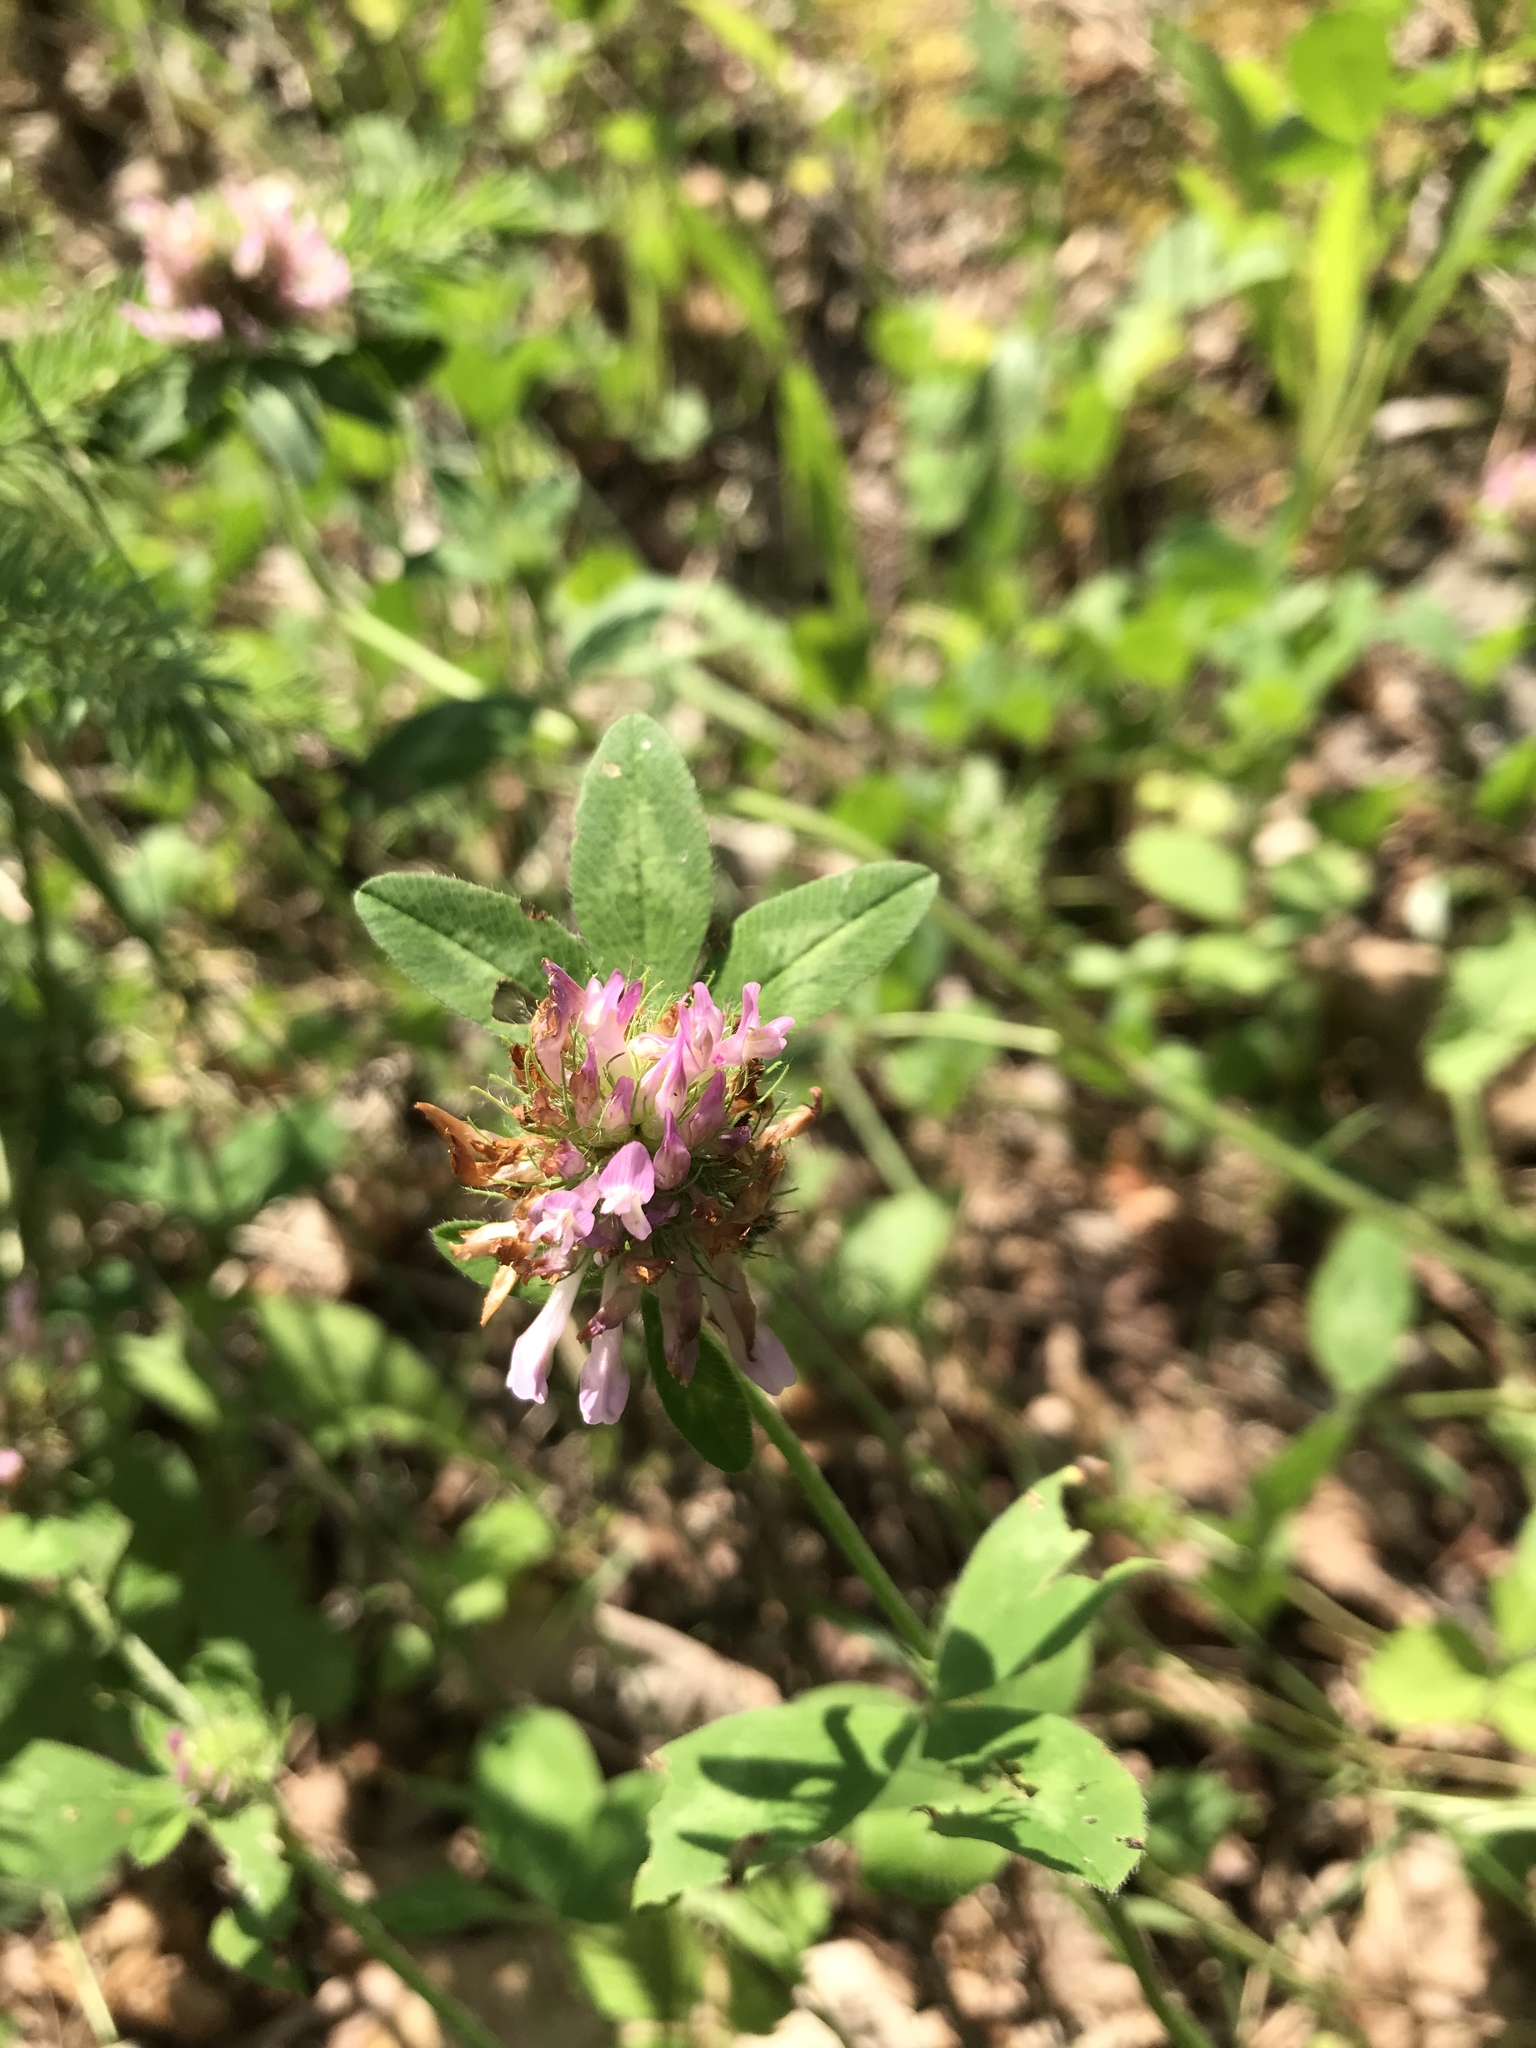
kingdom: Plantae
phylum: Tracheophyta
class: Magnoliopsida
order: Fabales
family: Fabaceae
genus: Trifolium
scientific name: Trifolium pratense
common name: Red clover
